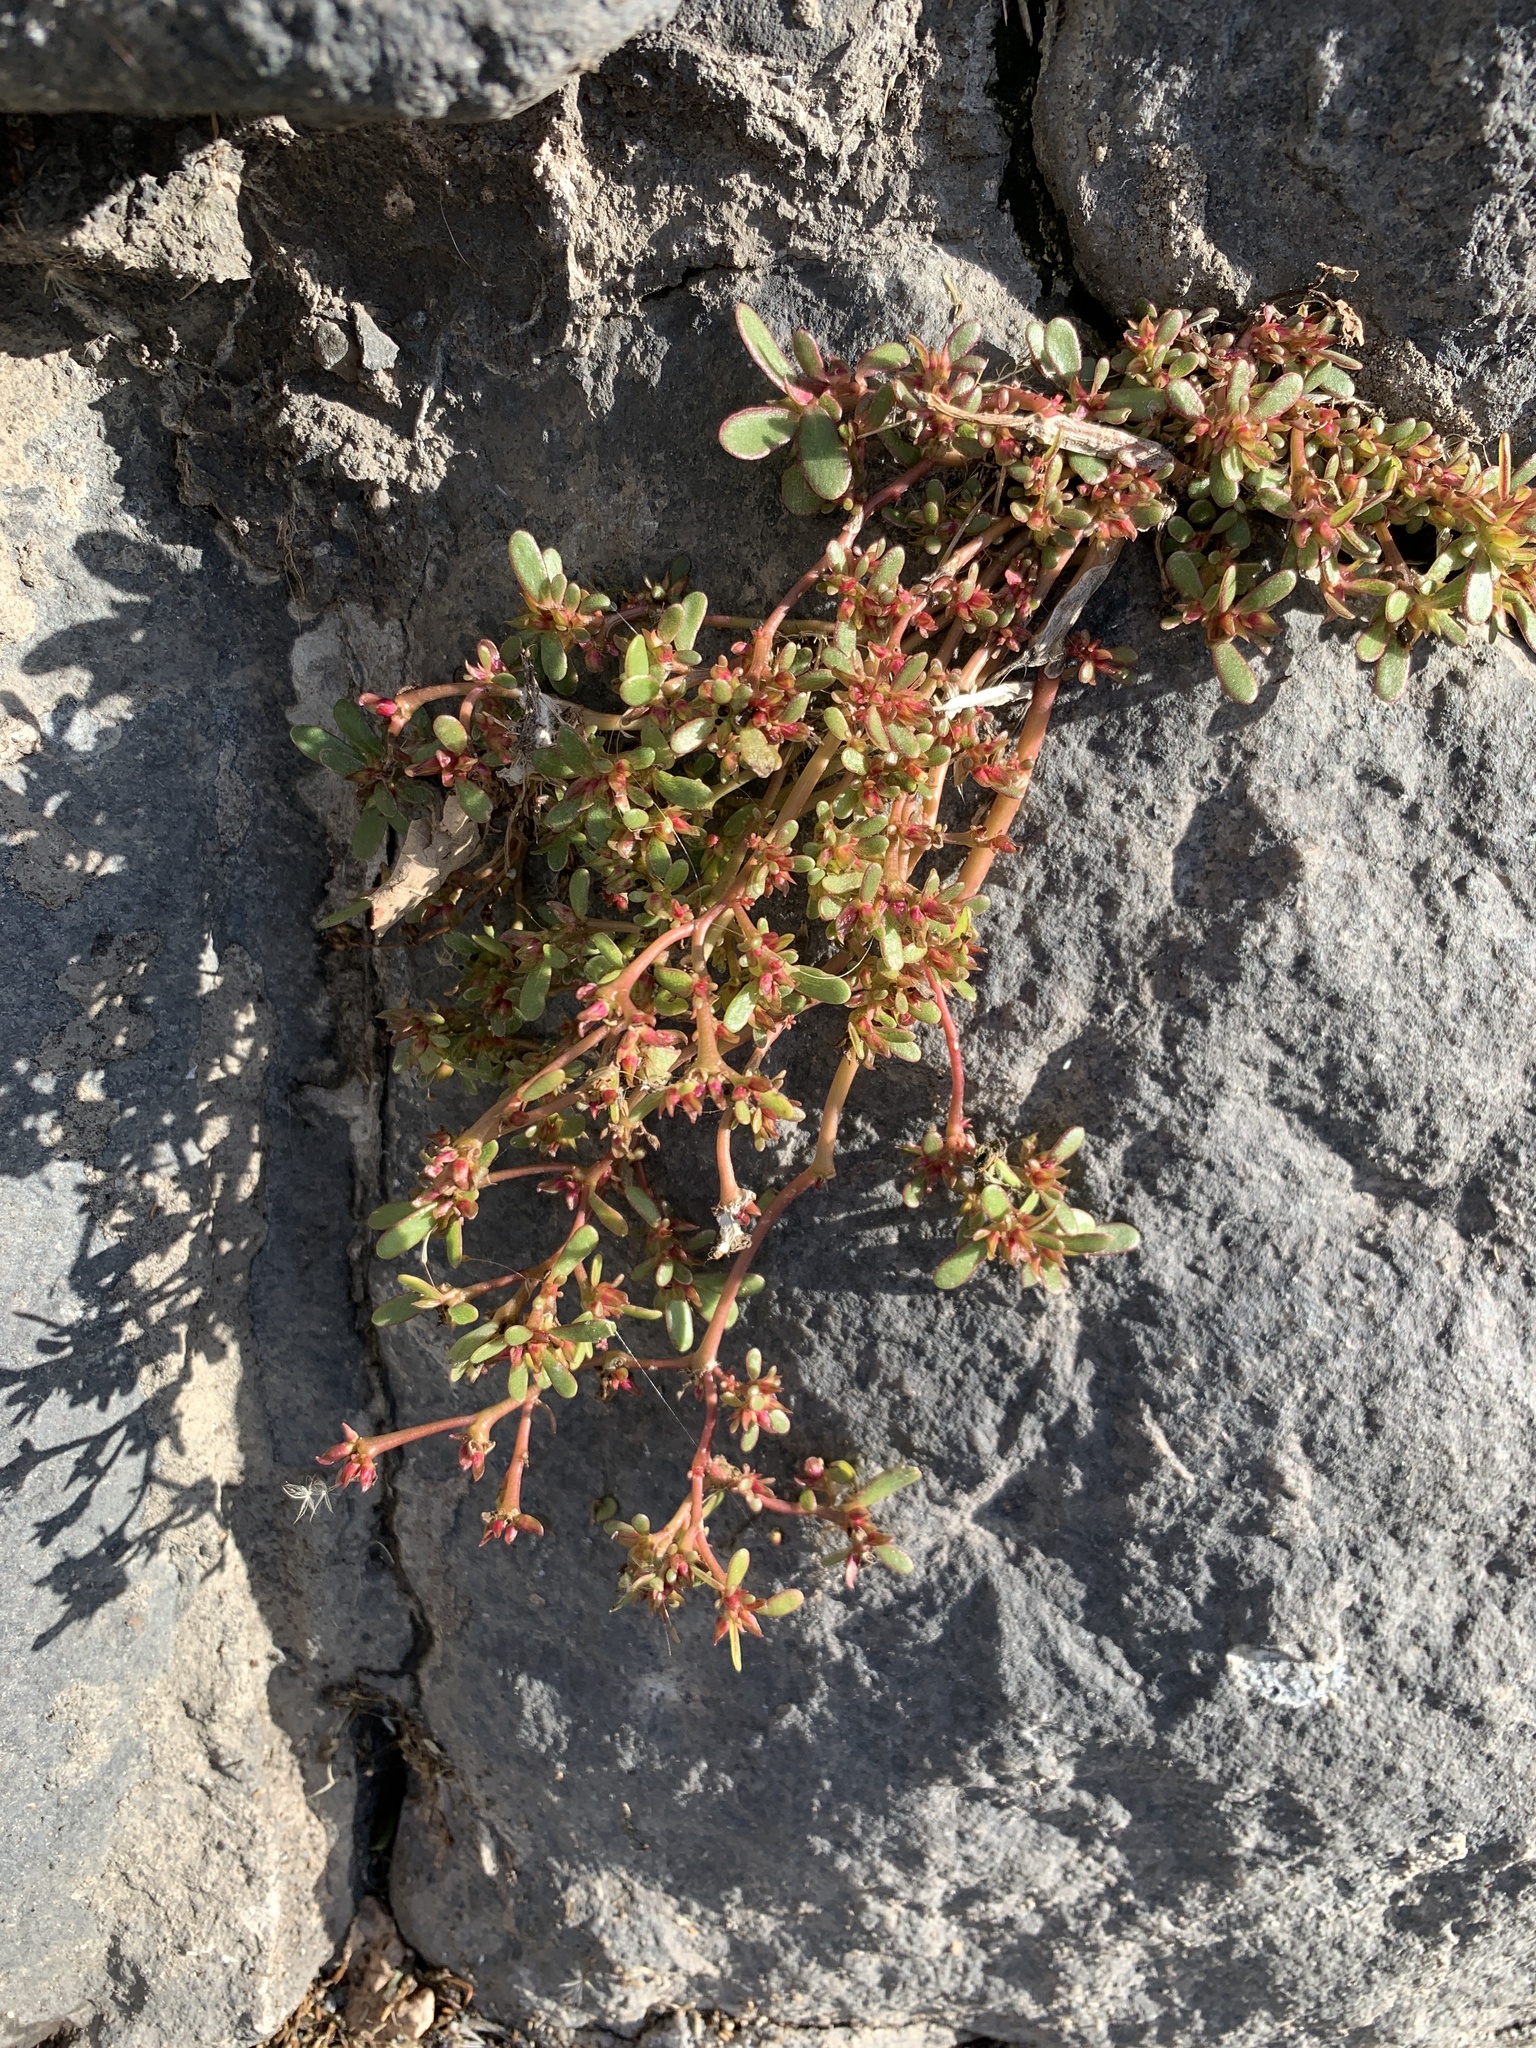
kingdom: Plantae
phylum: Tracheophyta
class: Magnoliopsida
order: Caryophyllales
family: Portulacaceae
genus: Portulaca
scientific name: Portulaca oleracea
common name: Common purslane
